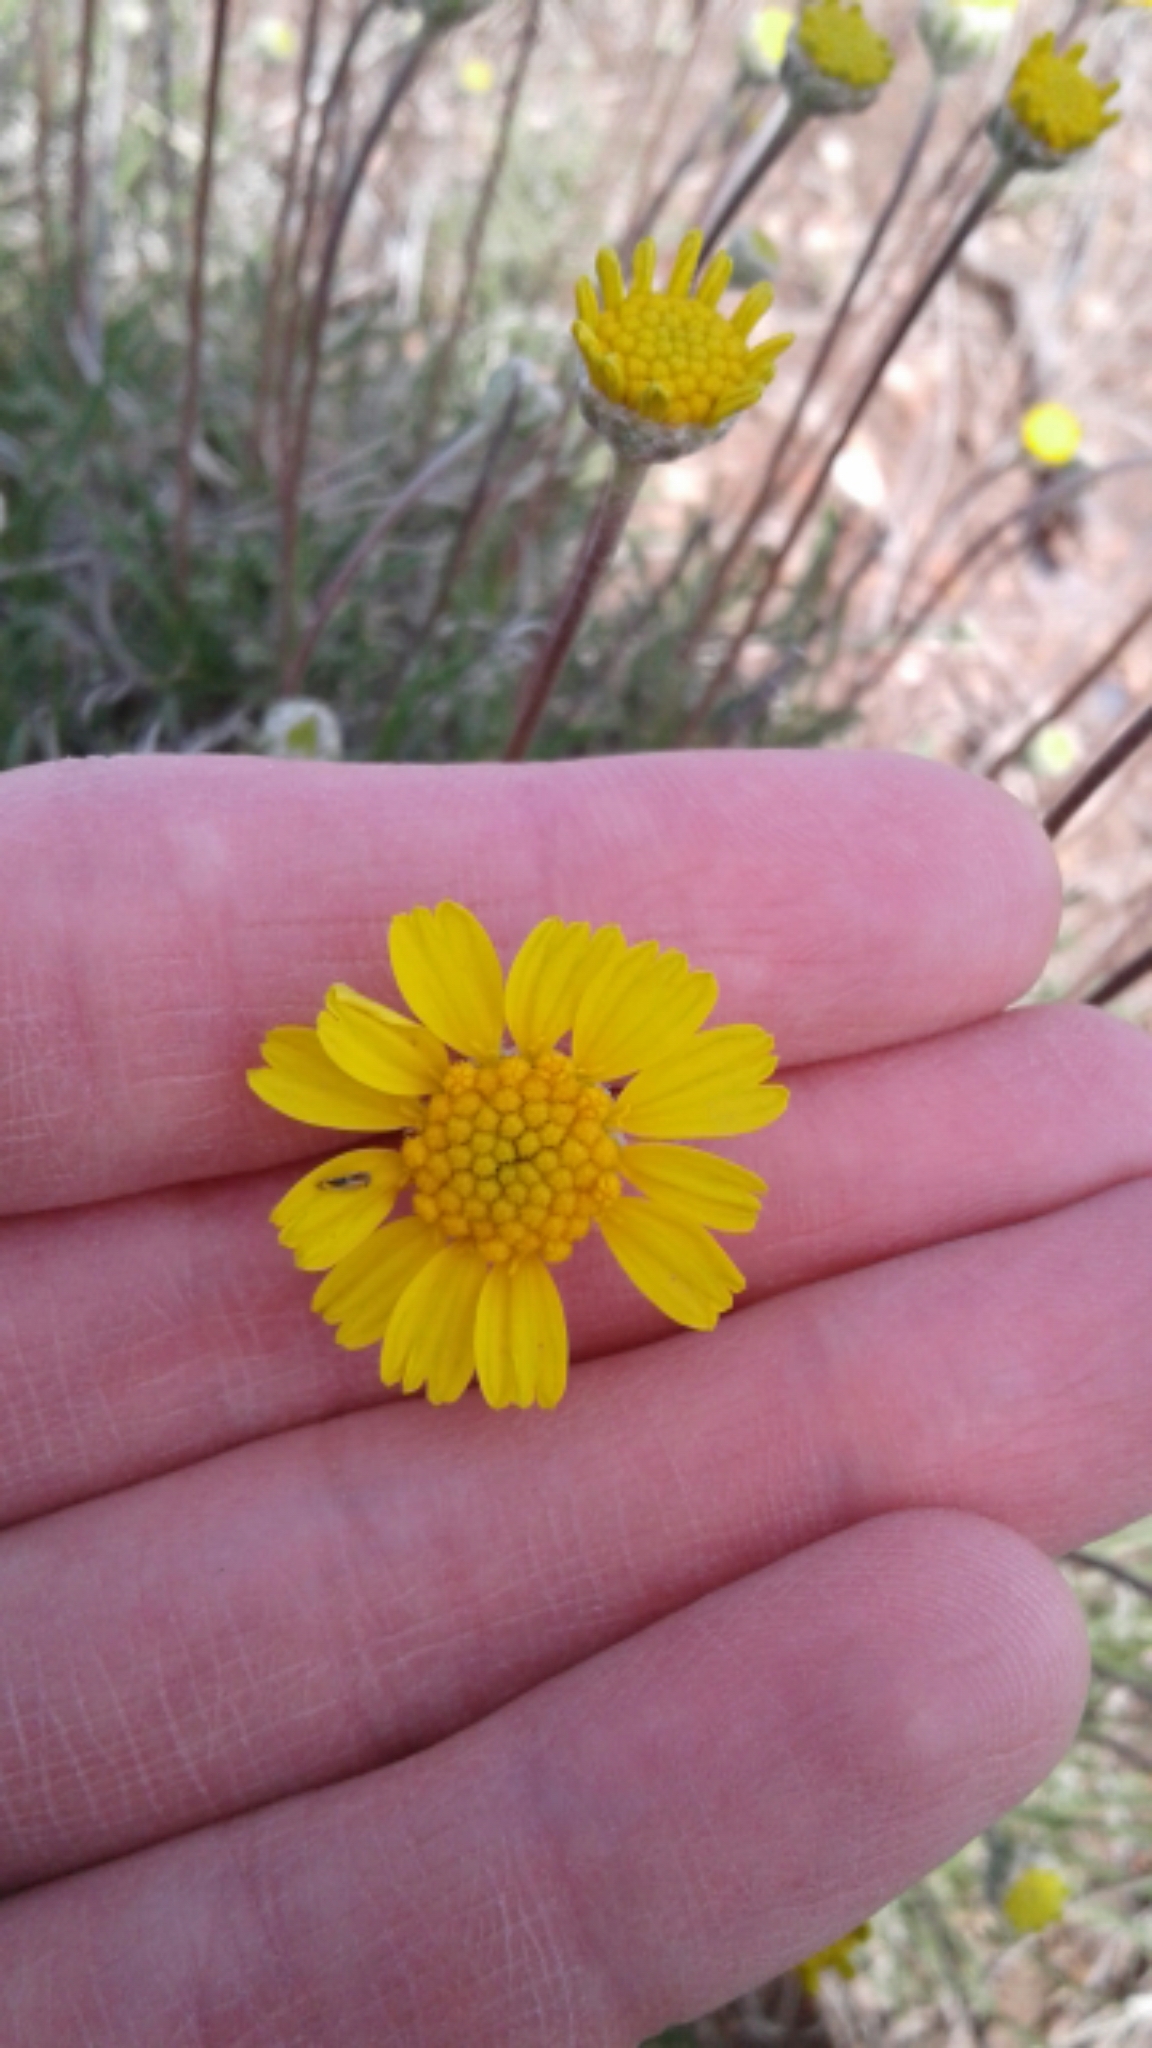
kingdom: Plantae
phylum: Tracheophyta
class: Magnoliopsida
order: Asterales
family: Asteraceae
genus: Tetraneuris
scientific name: Tetraneuris scaposa
